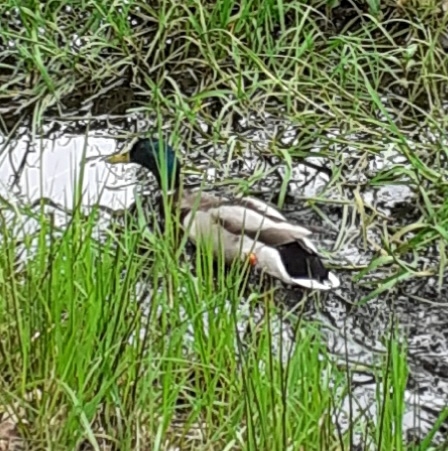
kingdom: Animalia
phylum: Chordata
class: Aves
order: Anseriformes
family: Anatidae
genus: Anas
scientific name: Anas platyrhynchos
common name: Mallard
